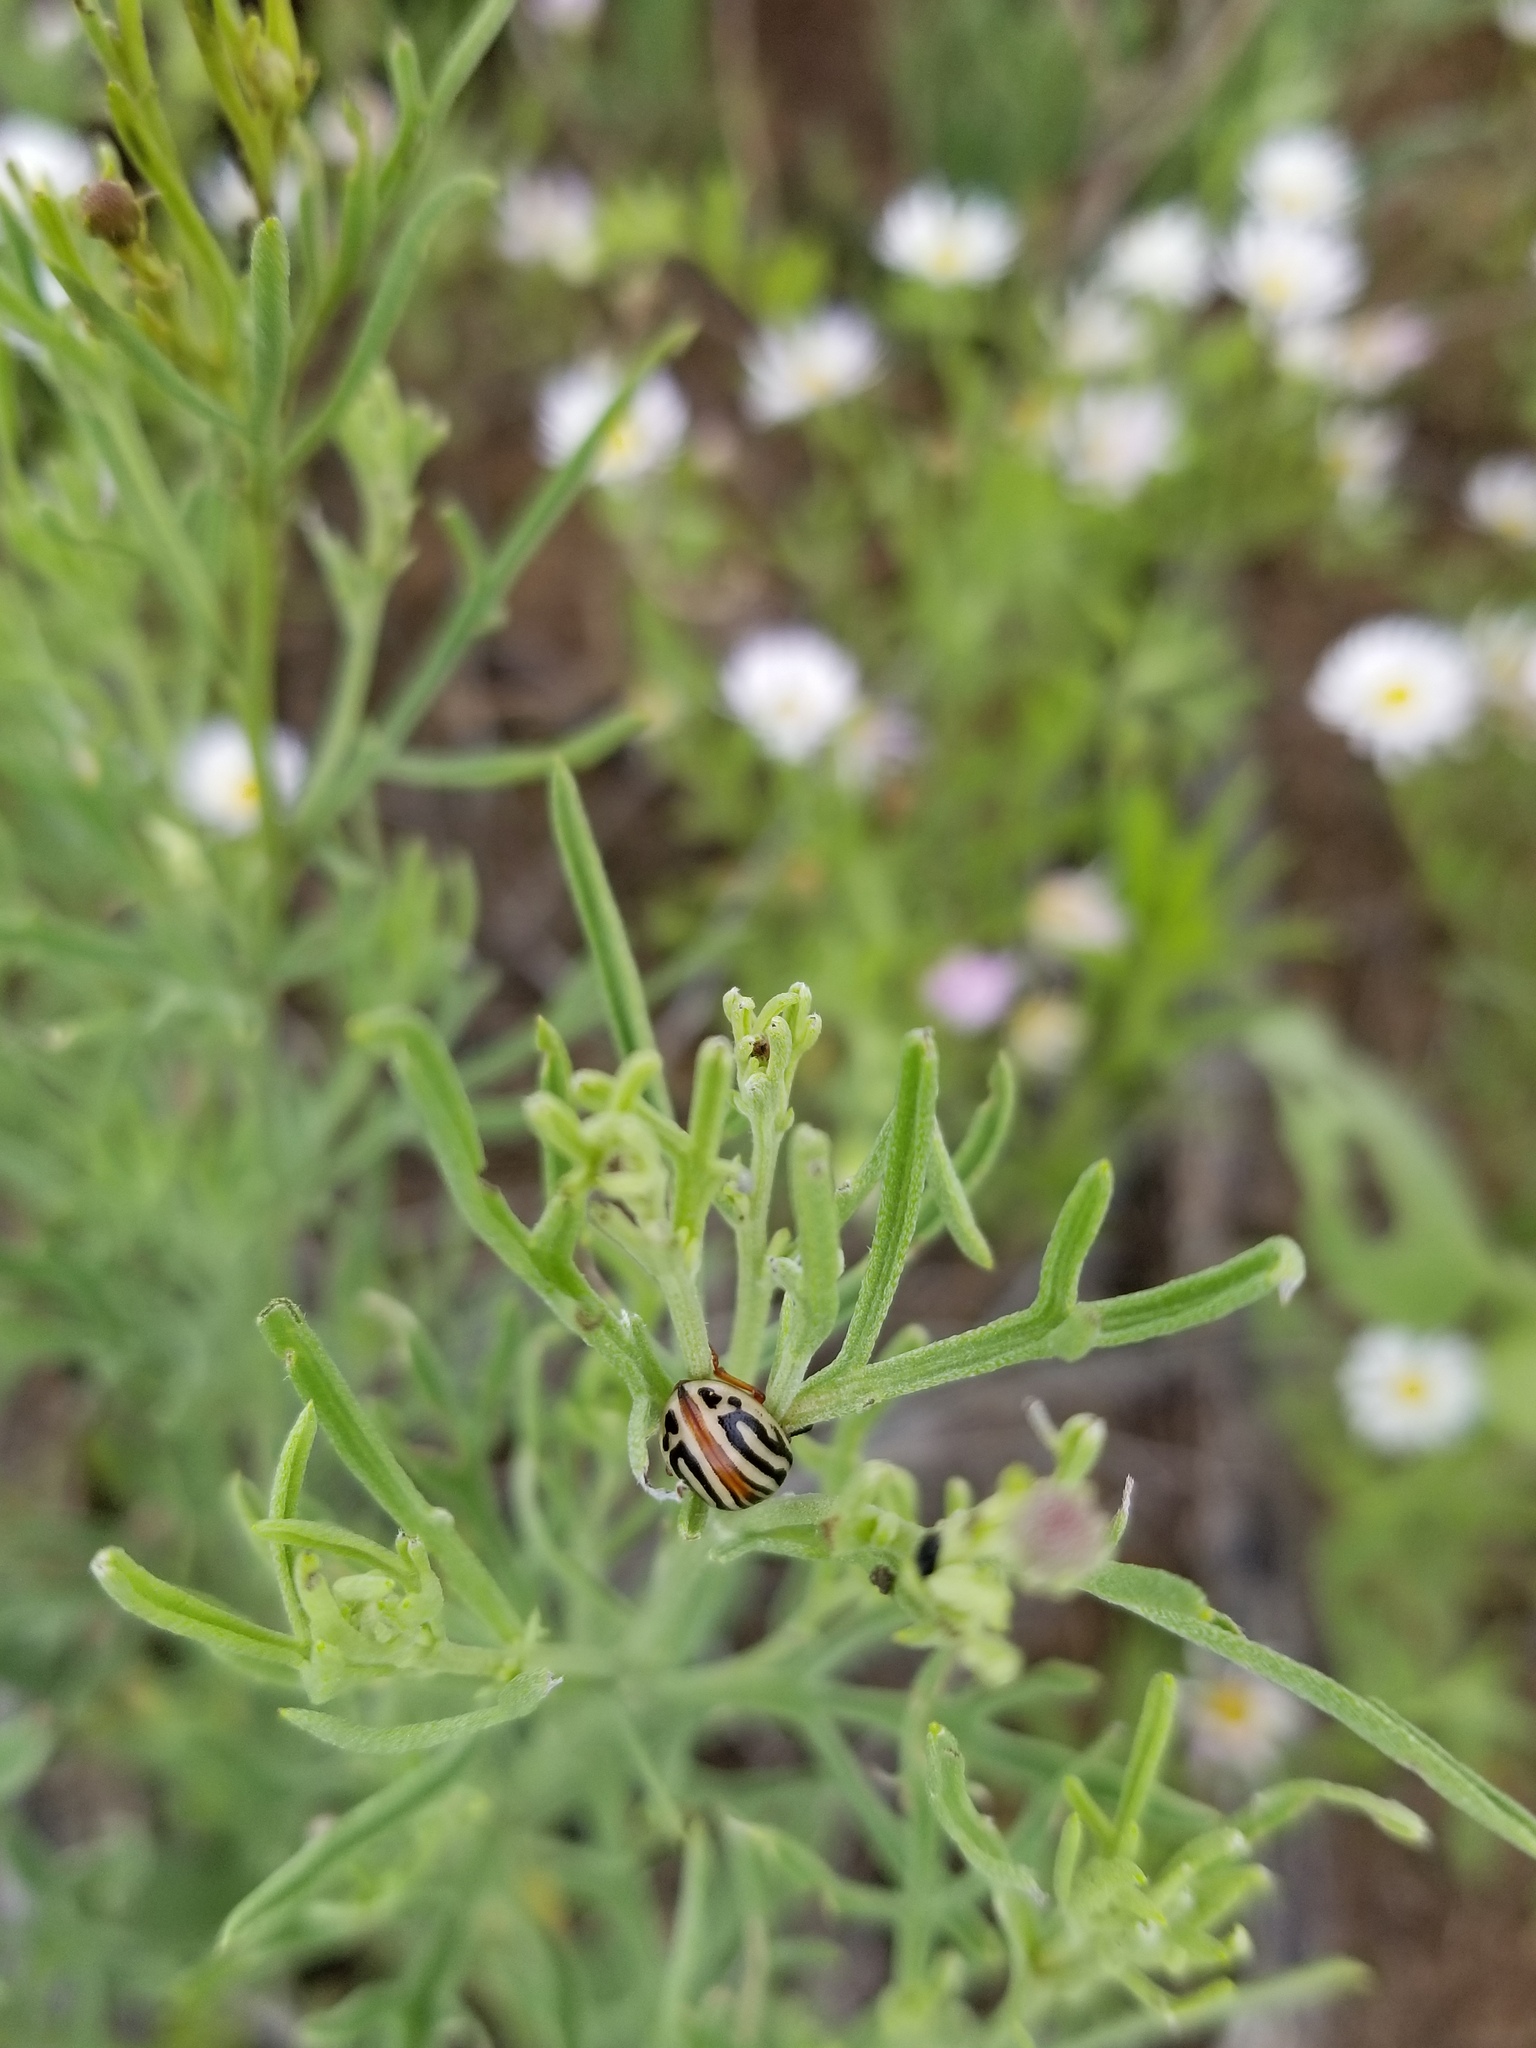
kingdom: Animalia
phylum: Arthropoda
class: Insecta
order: Coleoptera
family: Chrysomelidae
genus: Calligrapha
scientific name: Calligrapha
